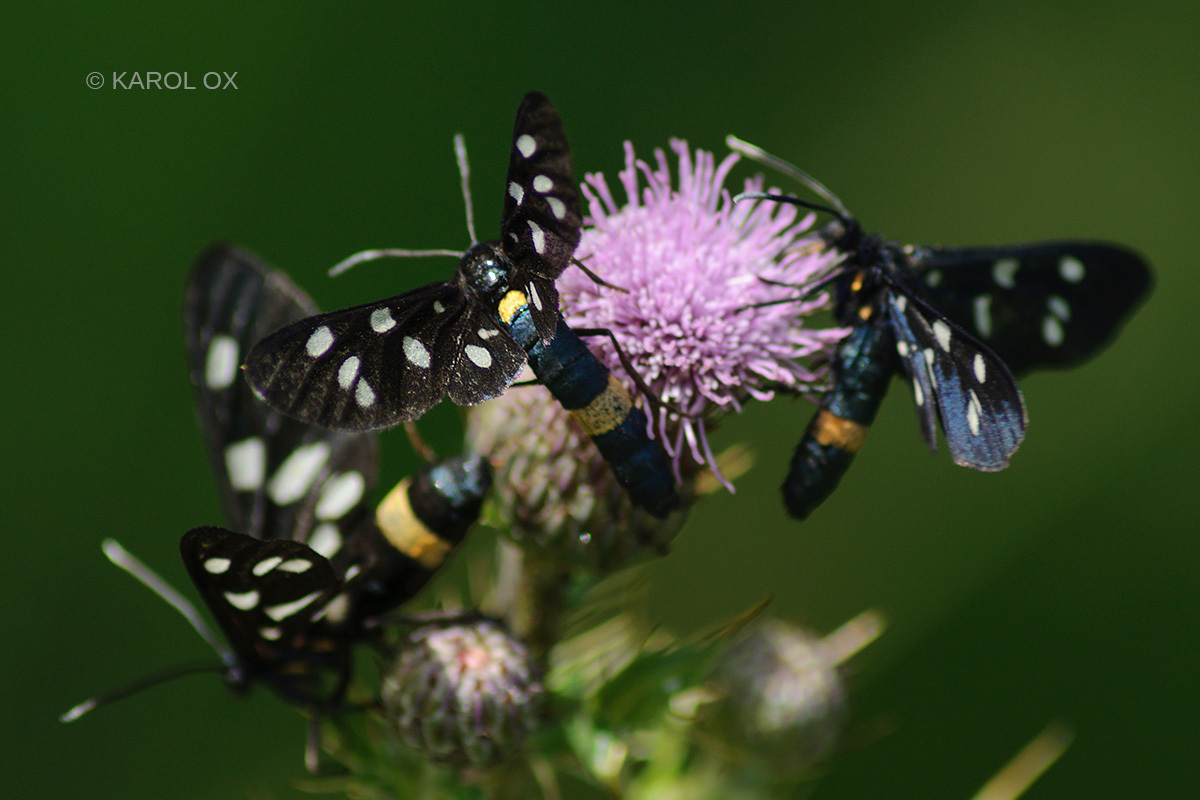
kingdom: Animalia
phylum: Arthropoda
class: Insecta
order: Lepidoptera
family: Erebidae
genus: Amata
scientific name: Amata phegea
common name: Nine-spotted
